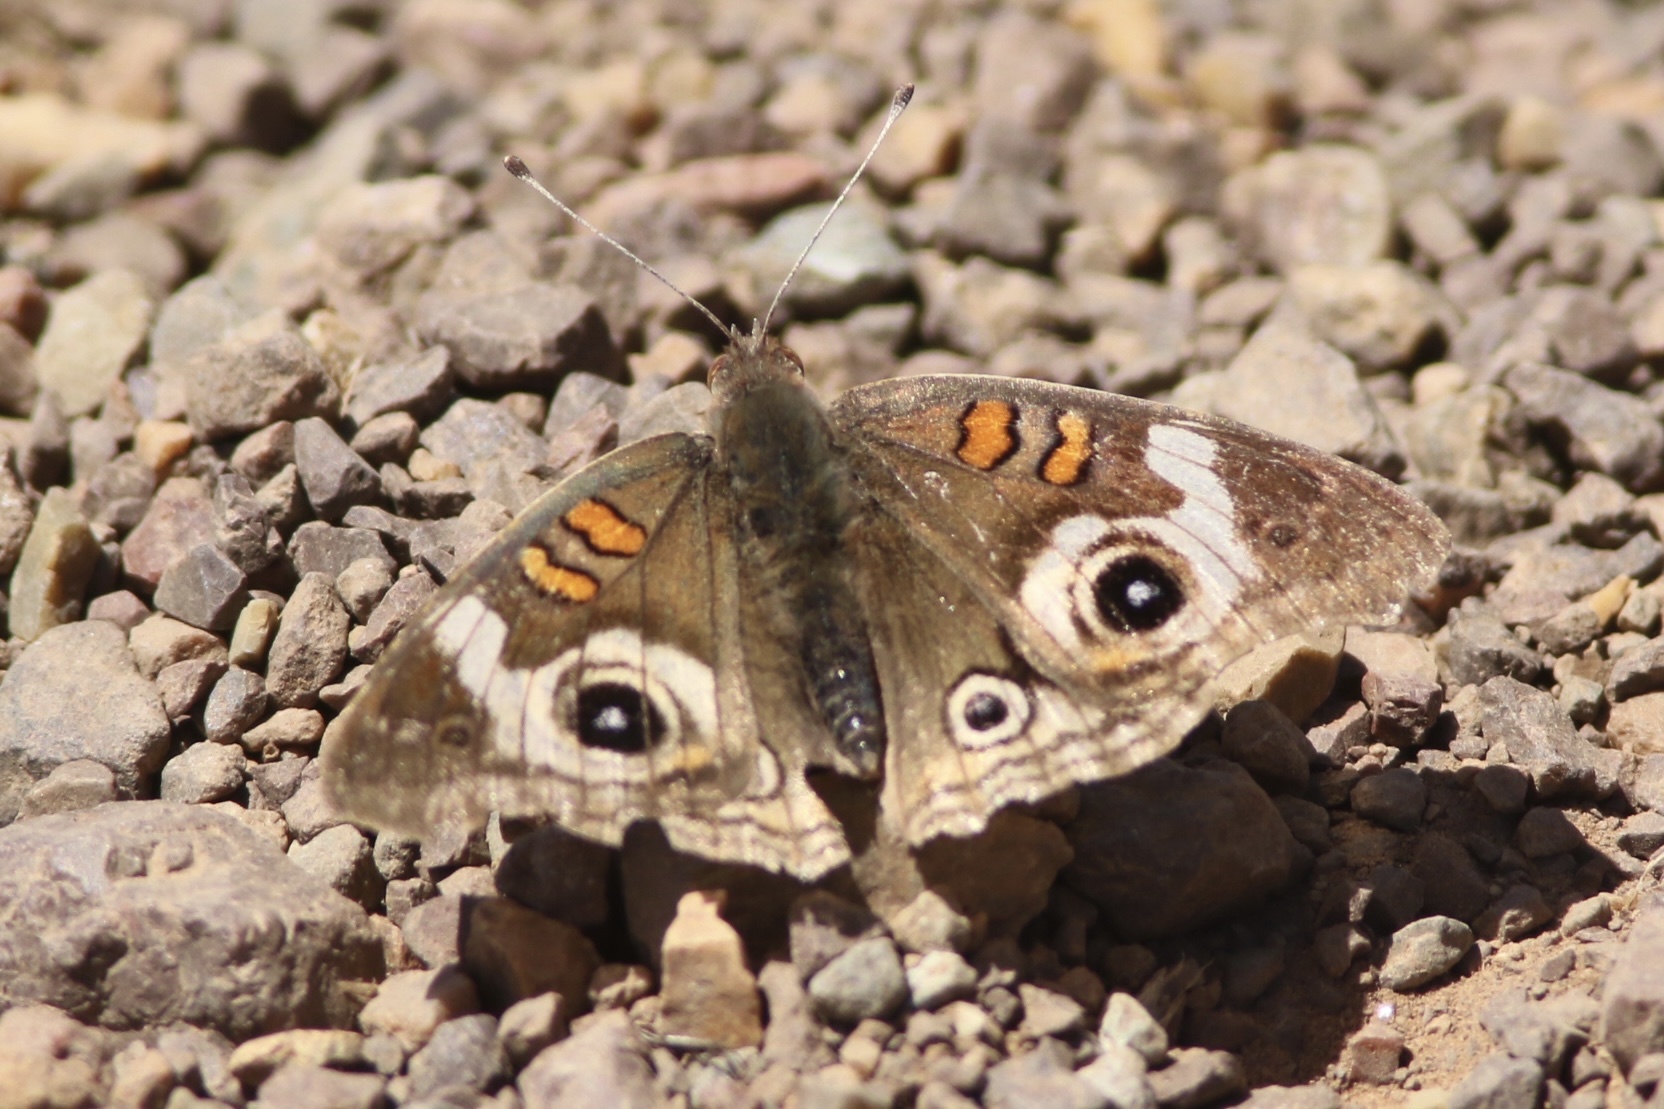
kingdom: Animalia
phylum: Arthropoda
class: Insecta
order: Lepidoptera
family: Nymphalidae
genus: Junonia
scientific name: Junonia grisea
